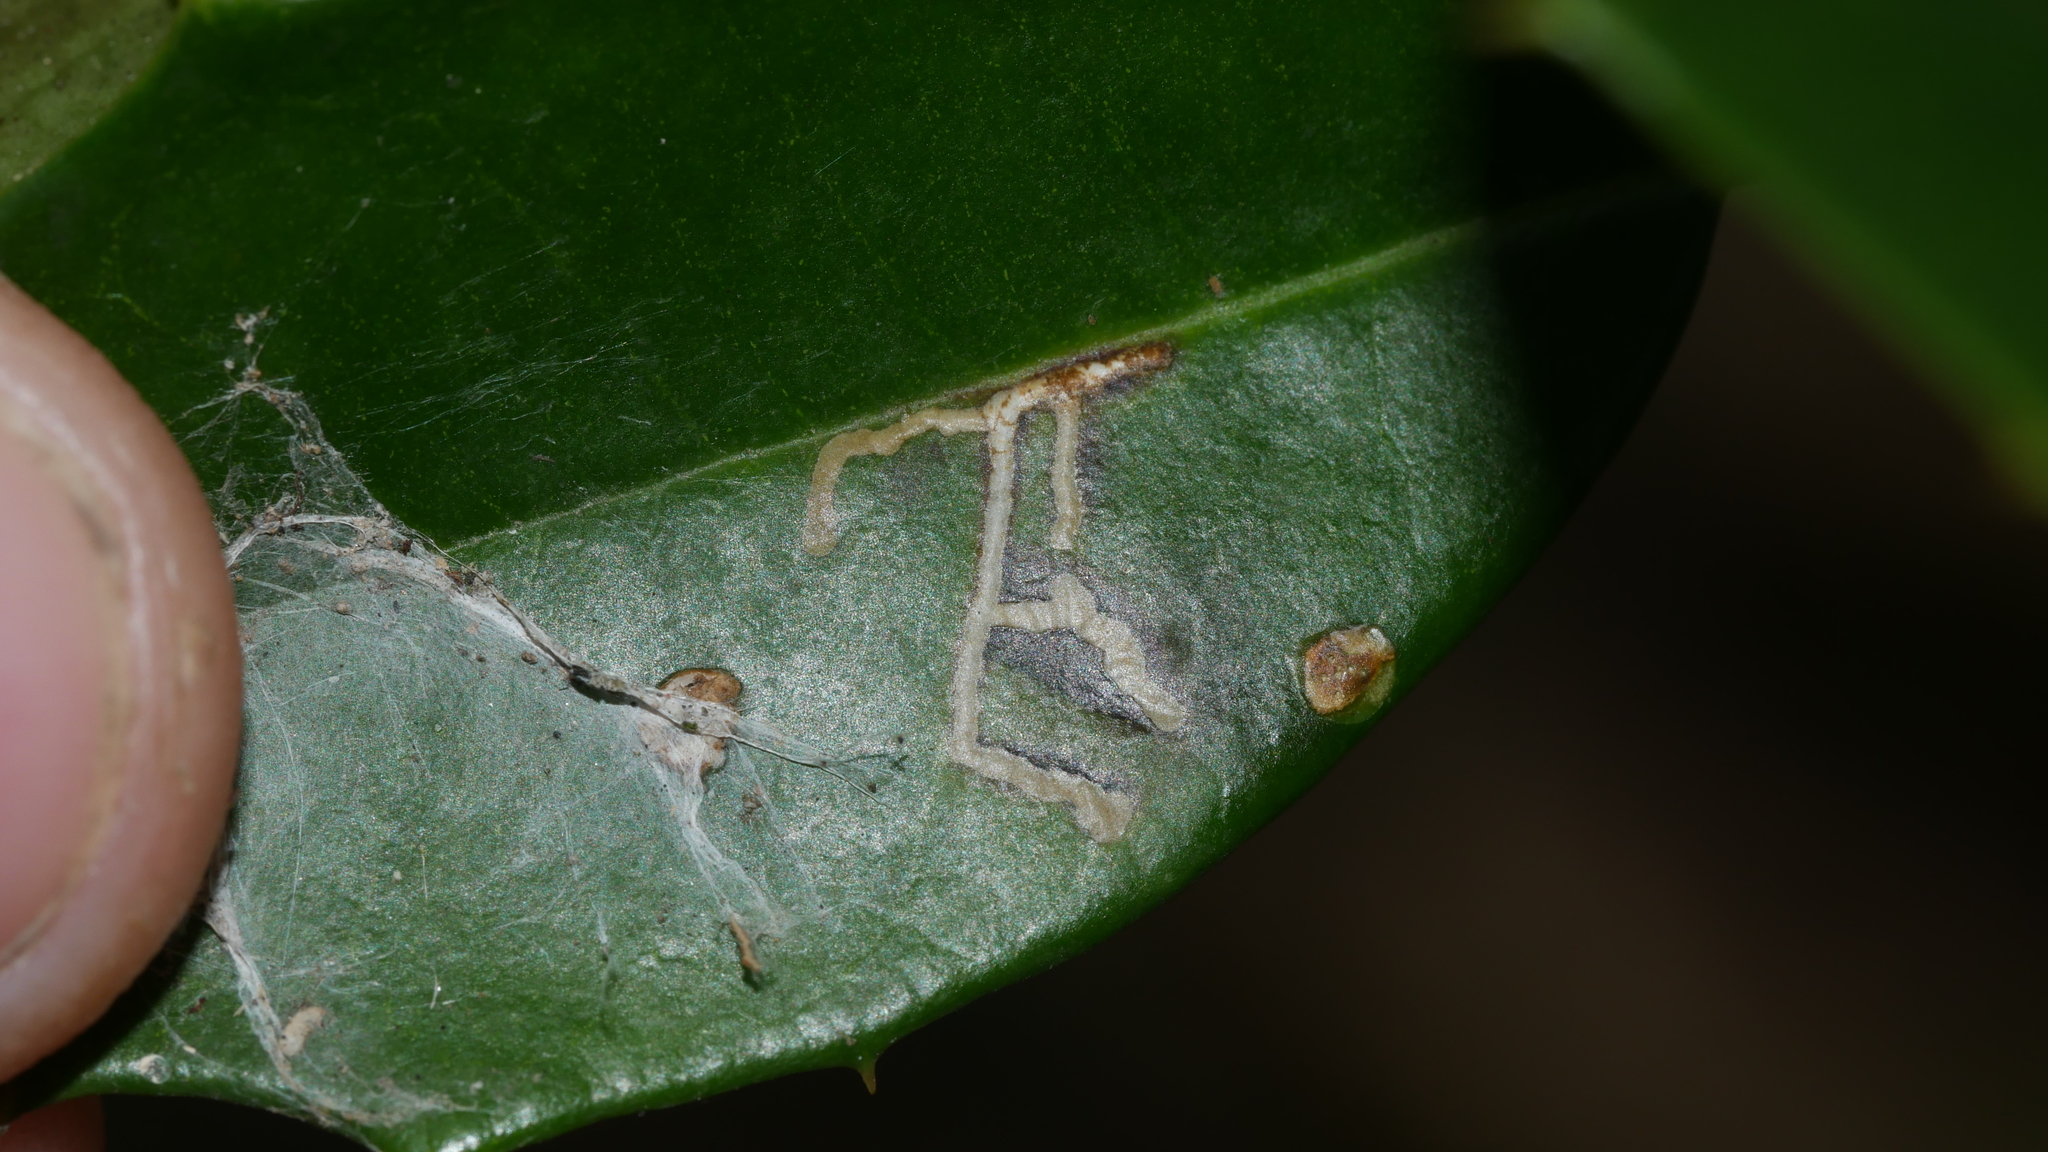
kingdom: Animalia
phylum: Arthropoda
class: Insecta
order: Lepidoptera
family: Tortricidae
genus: Rhopobota
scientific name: Rhopobota
